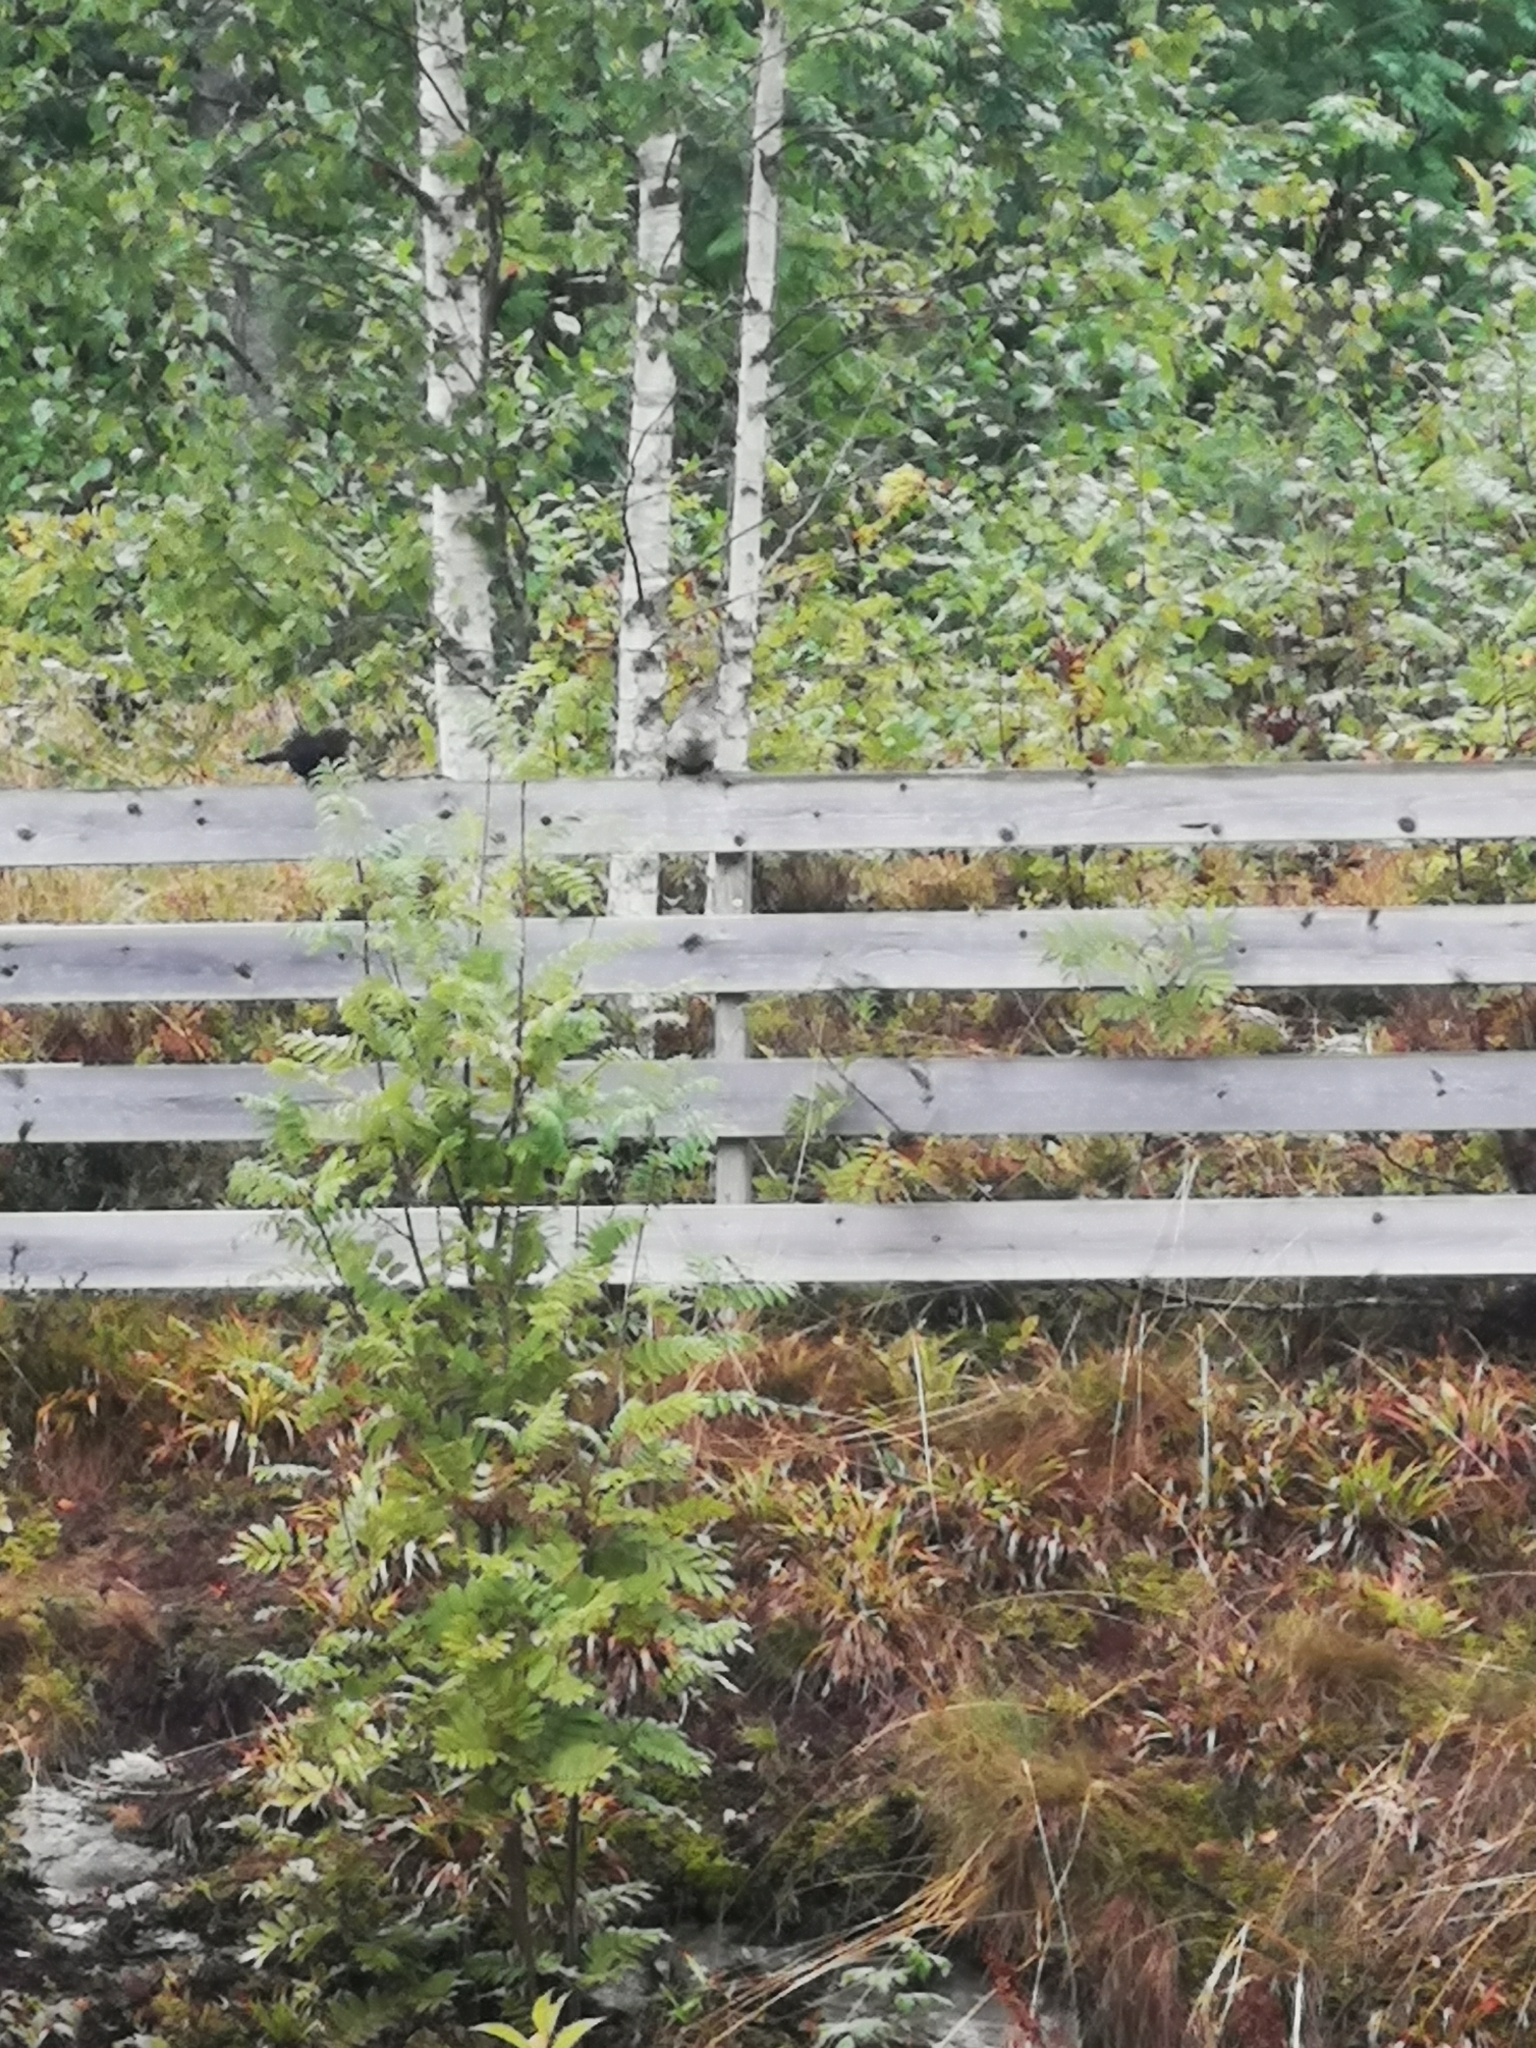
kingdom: Animalia
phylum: Chordata
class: Aves
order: Piciformes
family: Picidae
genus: Picus
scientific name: Picus viridis
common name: European green woodpecker
